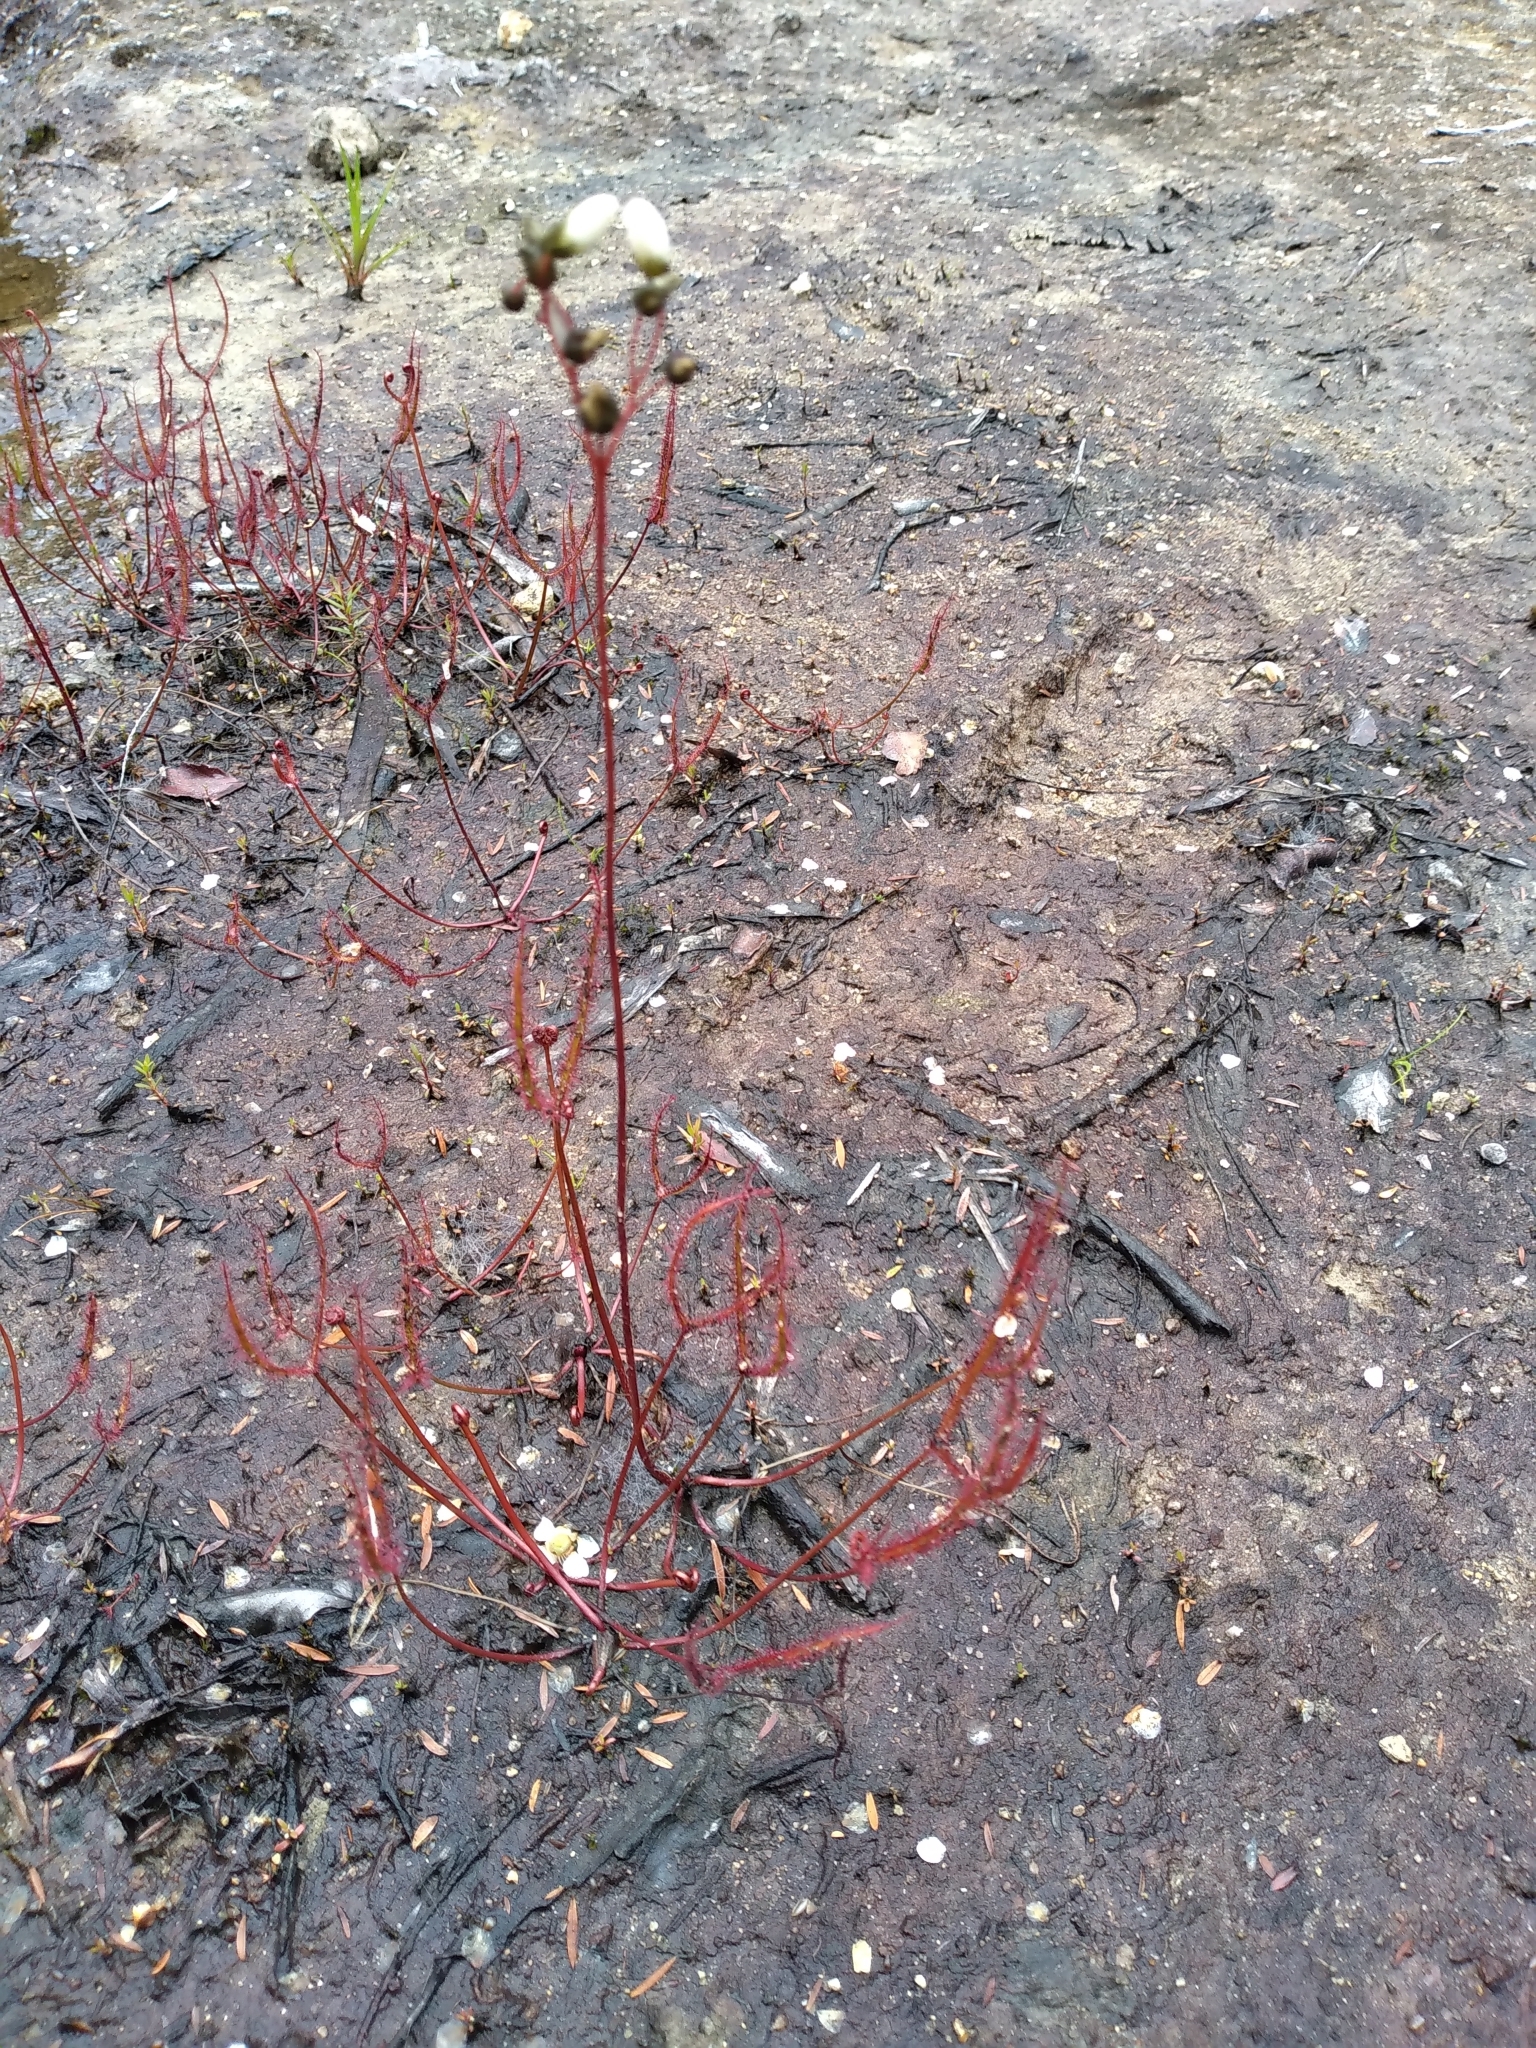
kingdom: Plantae
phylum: Tracheophyta
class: Magnoliopsida
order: Caryophyllales
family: Droseraceae
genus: Drosera
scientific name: Drosera binata
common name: Forked sundew
